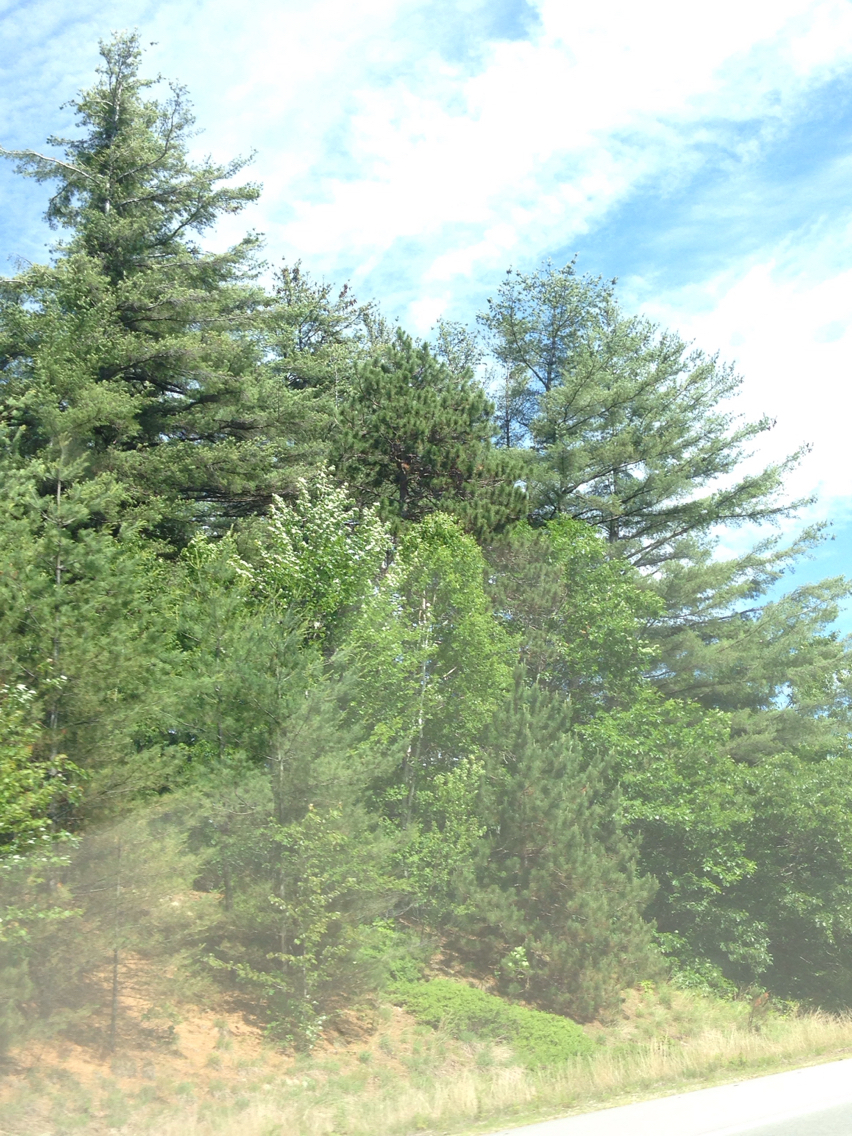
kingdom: Plantae
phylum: Tracheophyta
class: Pinopsida
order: Pinales
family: Pinaceae
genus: Pinus
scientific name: Pinus strobus
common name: Weymouth pine
